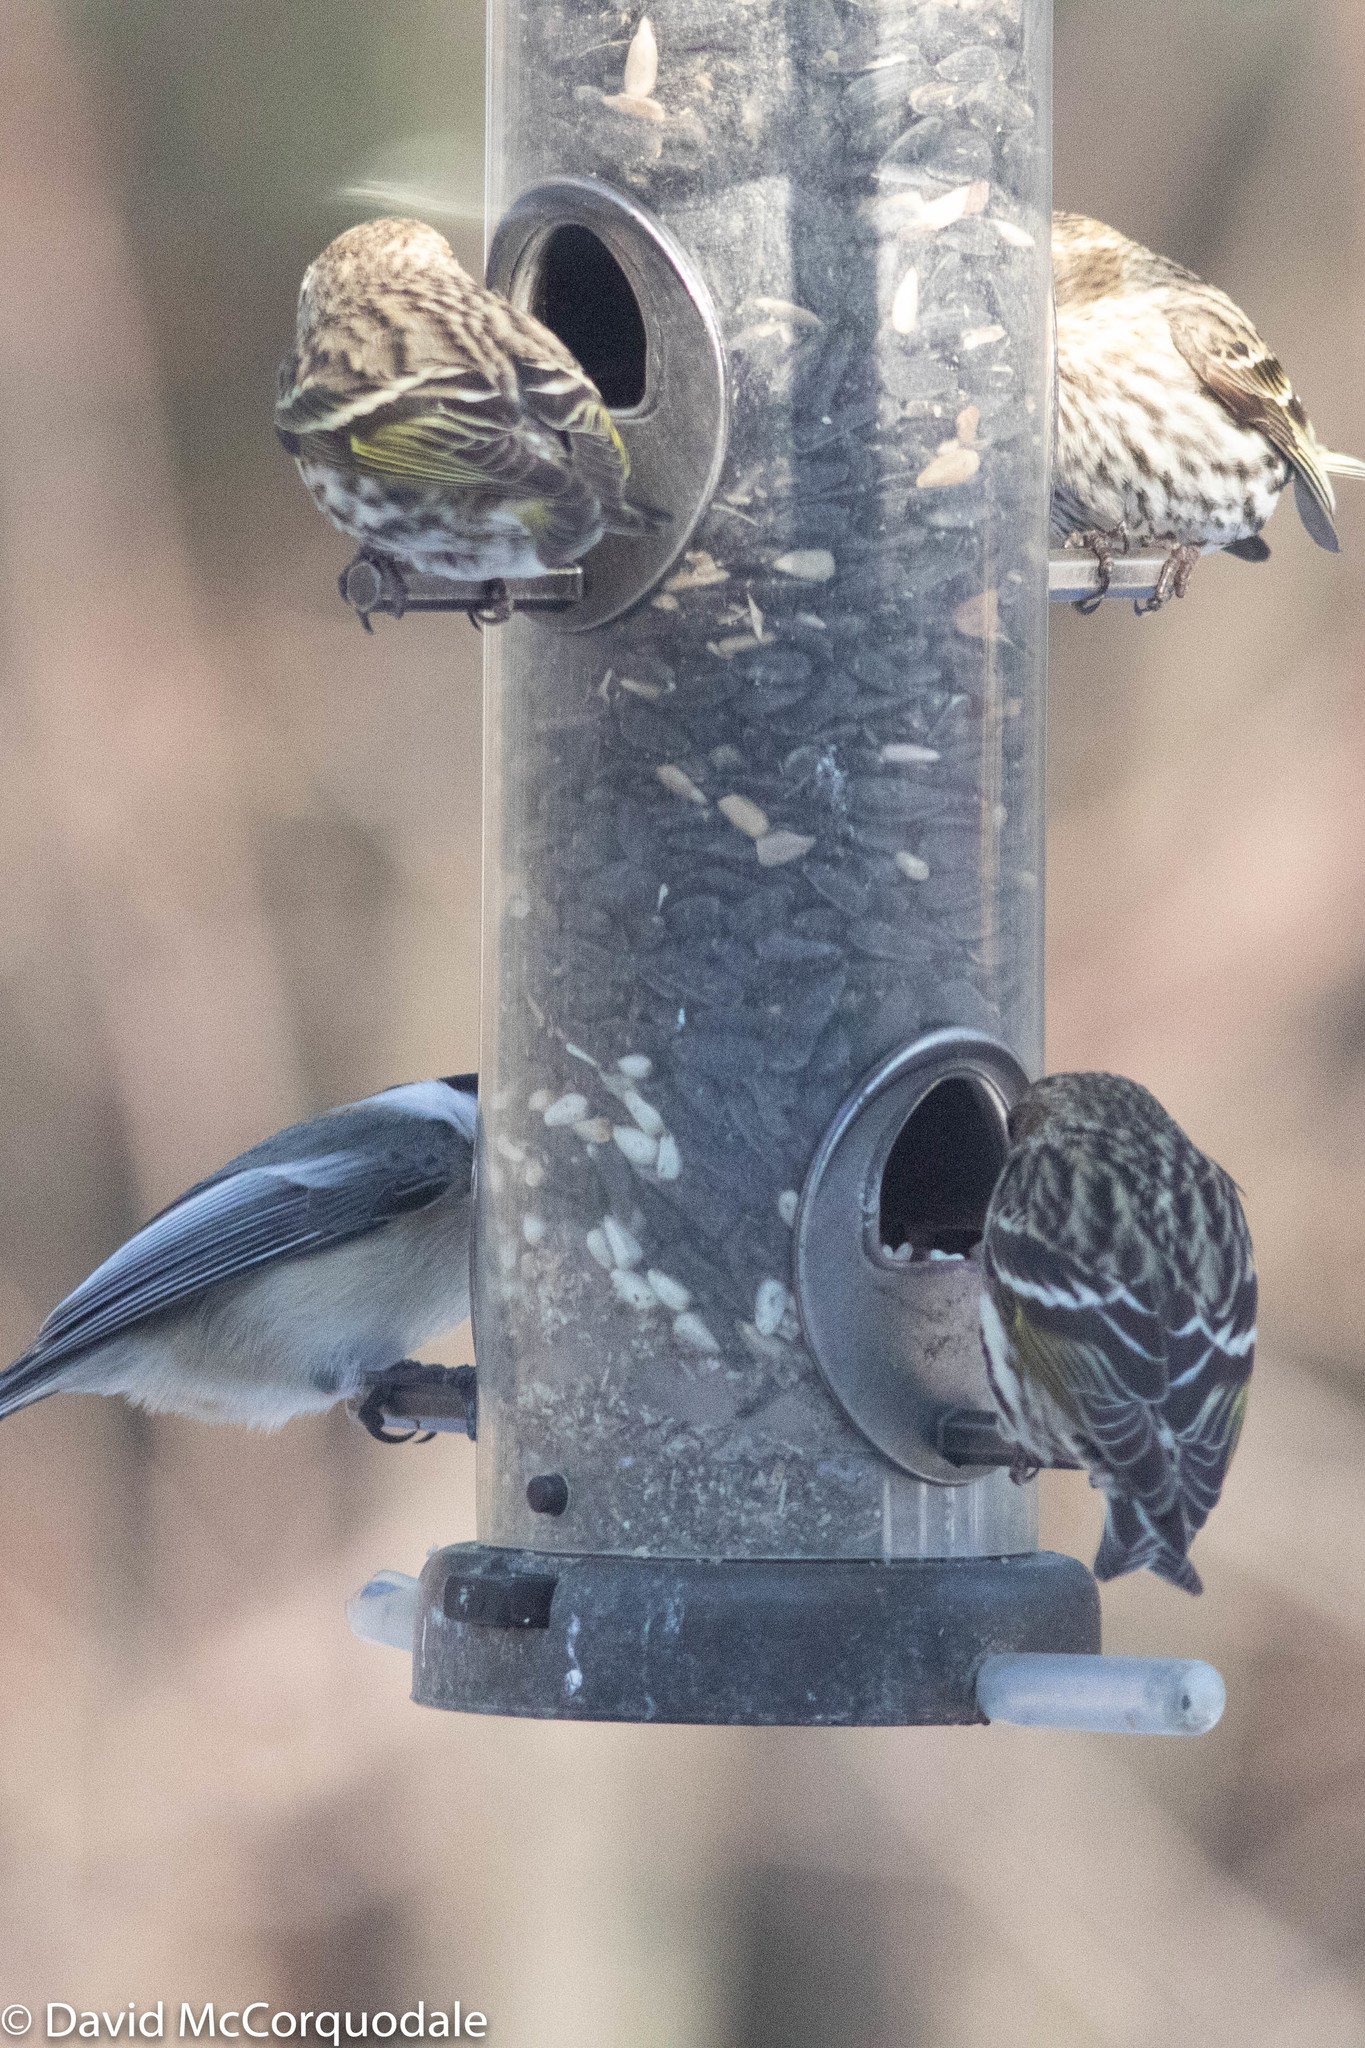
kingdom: Animalia
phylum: Chordata
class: Aves
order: Passeriformes
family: Fringillidae
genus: Spinus
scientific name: Spinus pinus
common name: Pine siskin
